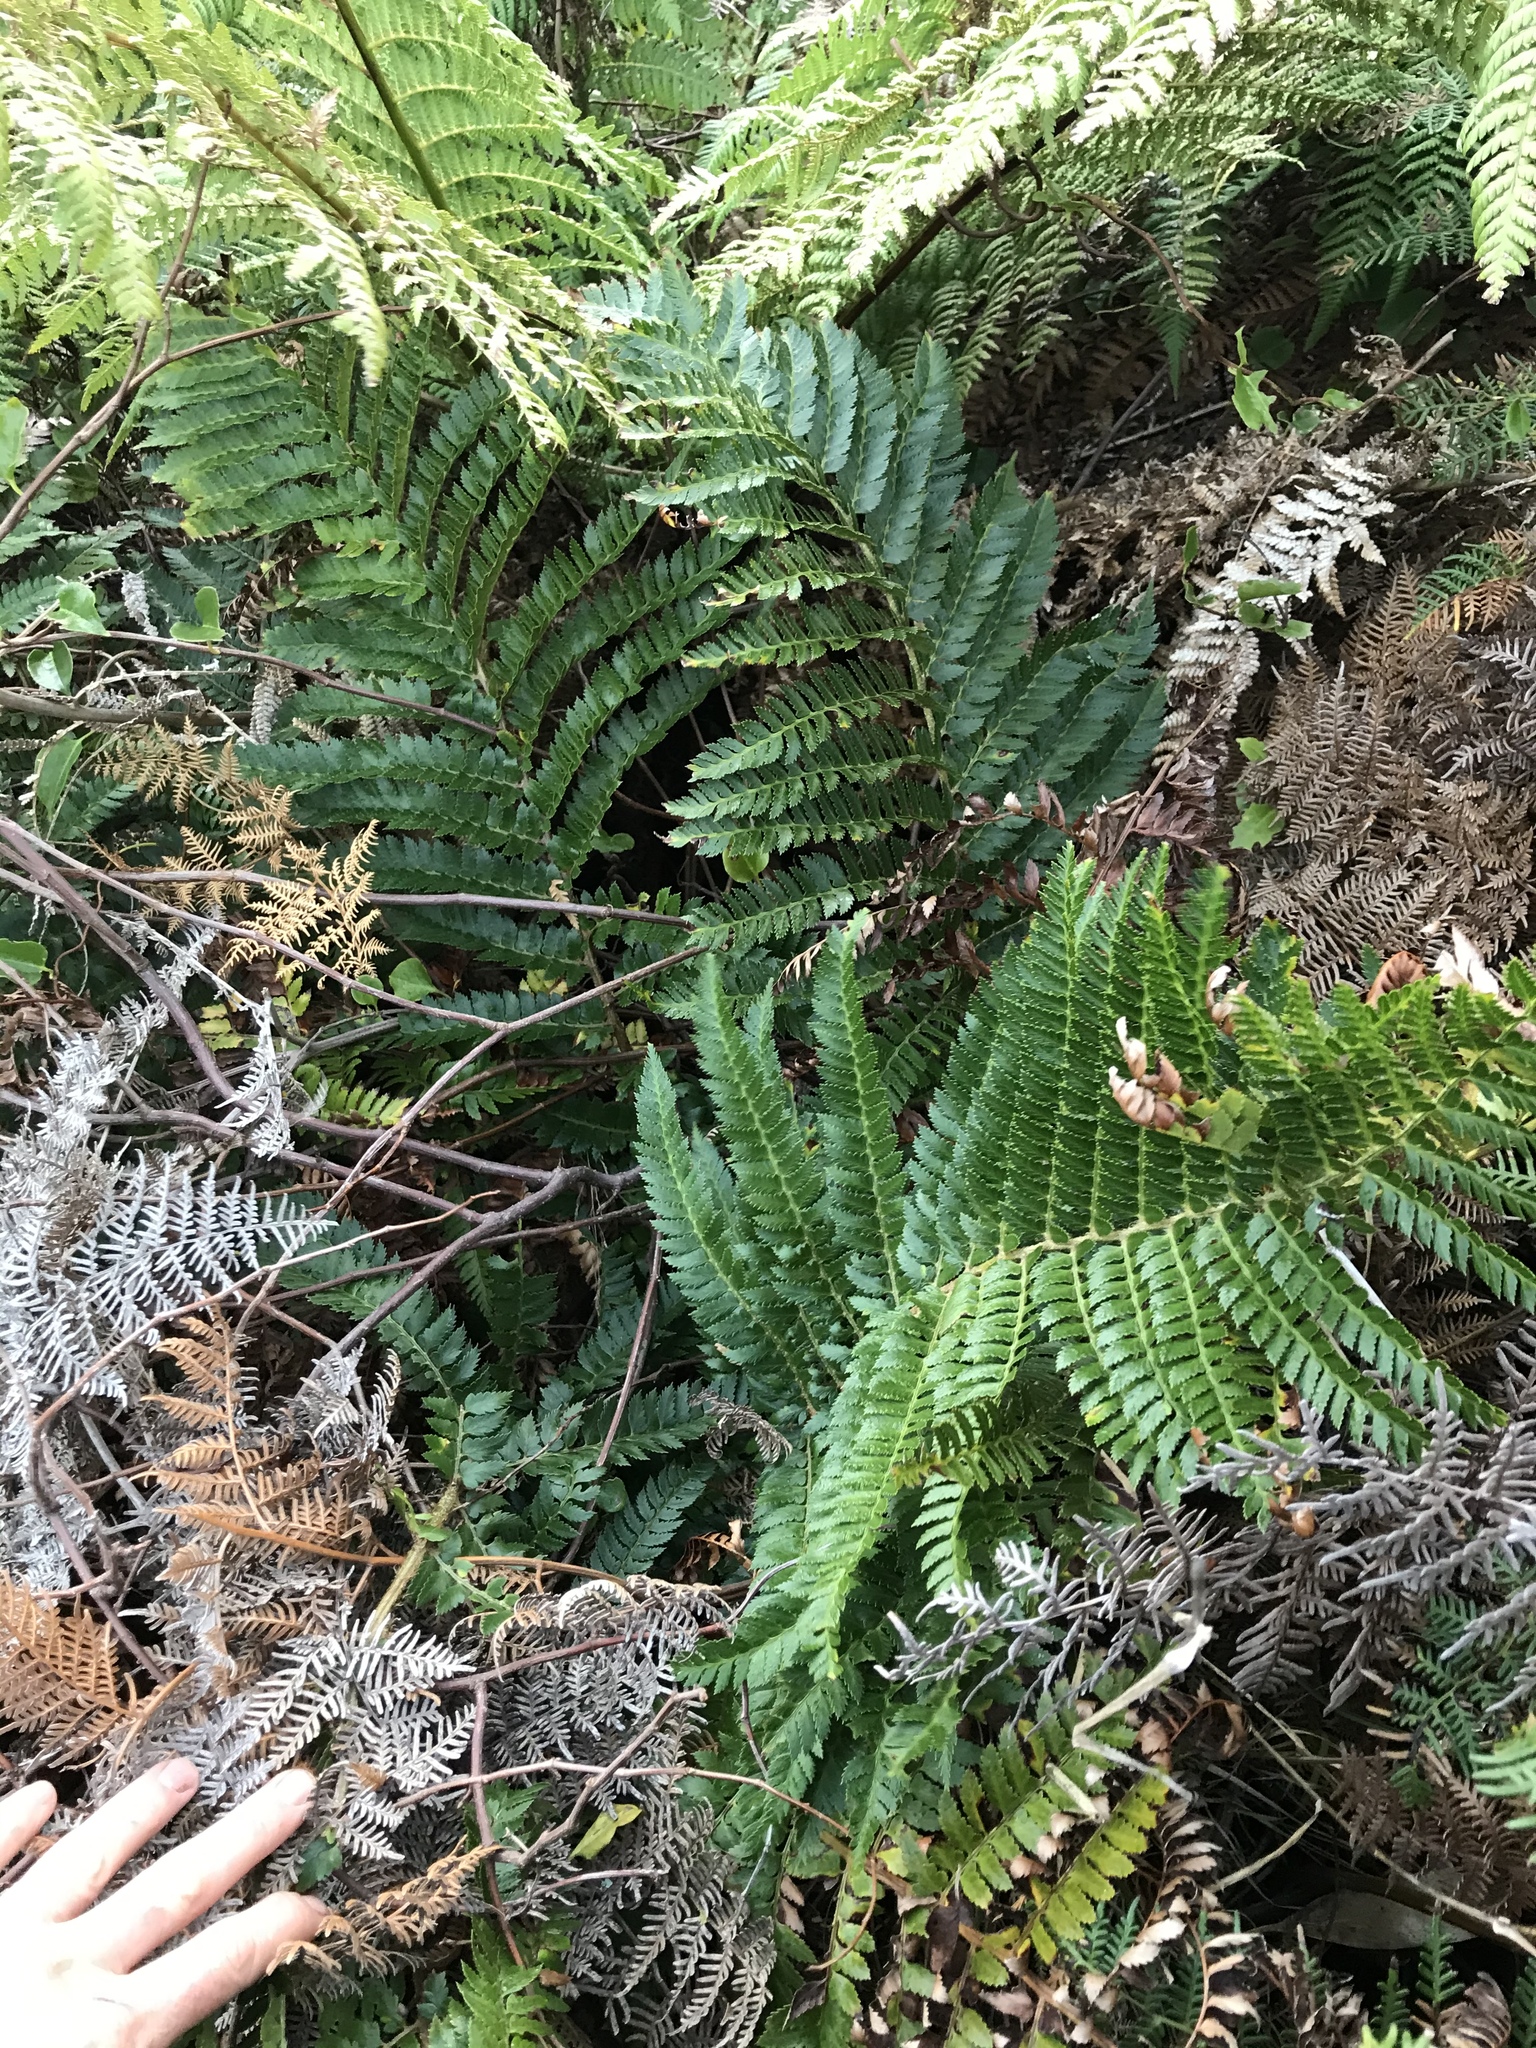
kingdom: Plantae
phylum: Tracheophyta
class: Polypodiopsida
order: Polypodiales
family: Dryopteridaceae
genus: Polystichum
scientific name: Polystichum vestitum
